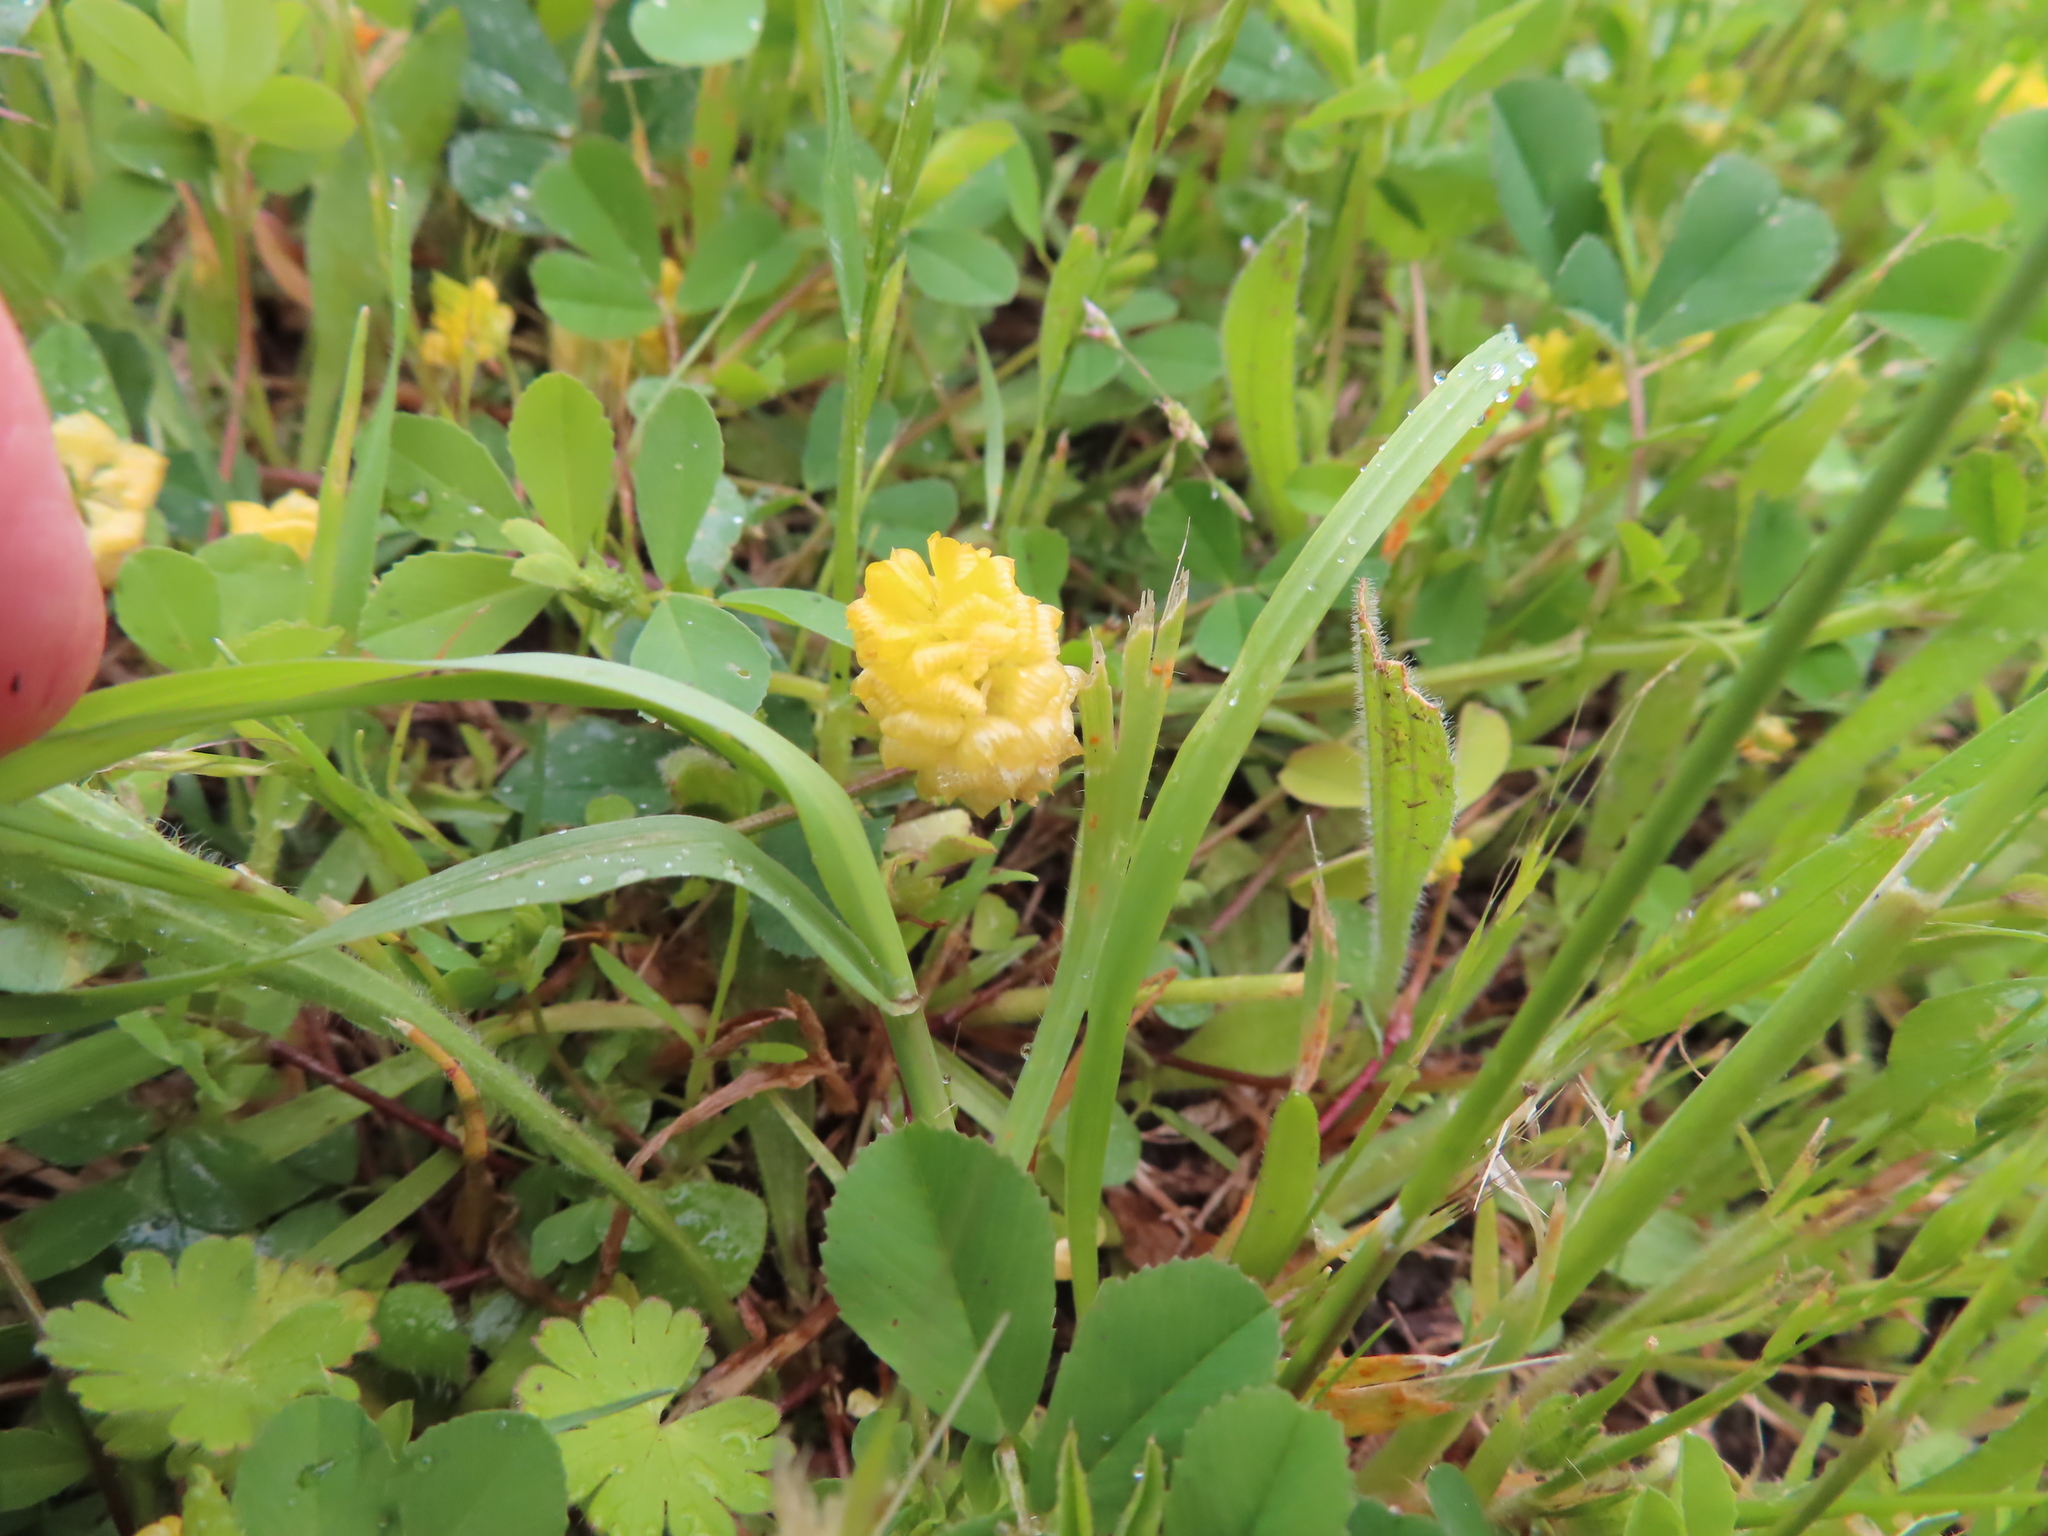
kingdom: Plantae
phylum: Tracheophyta
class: Magnoliopsida
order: Fabales
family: Fabaceae
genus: Trifolium
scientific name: Trifolium campestre
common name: Field clover
